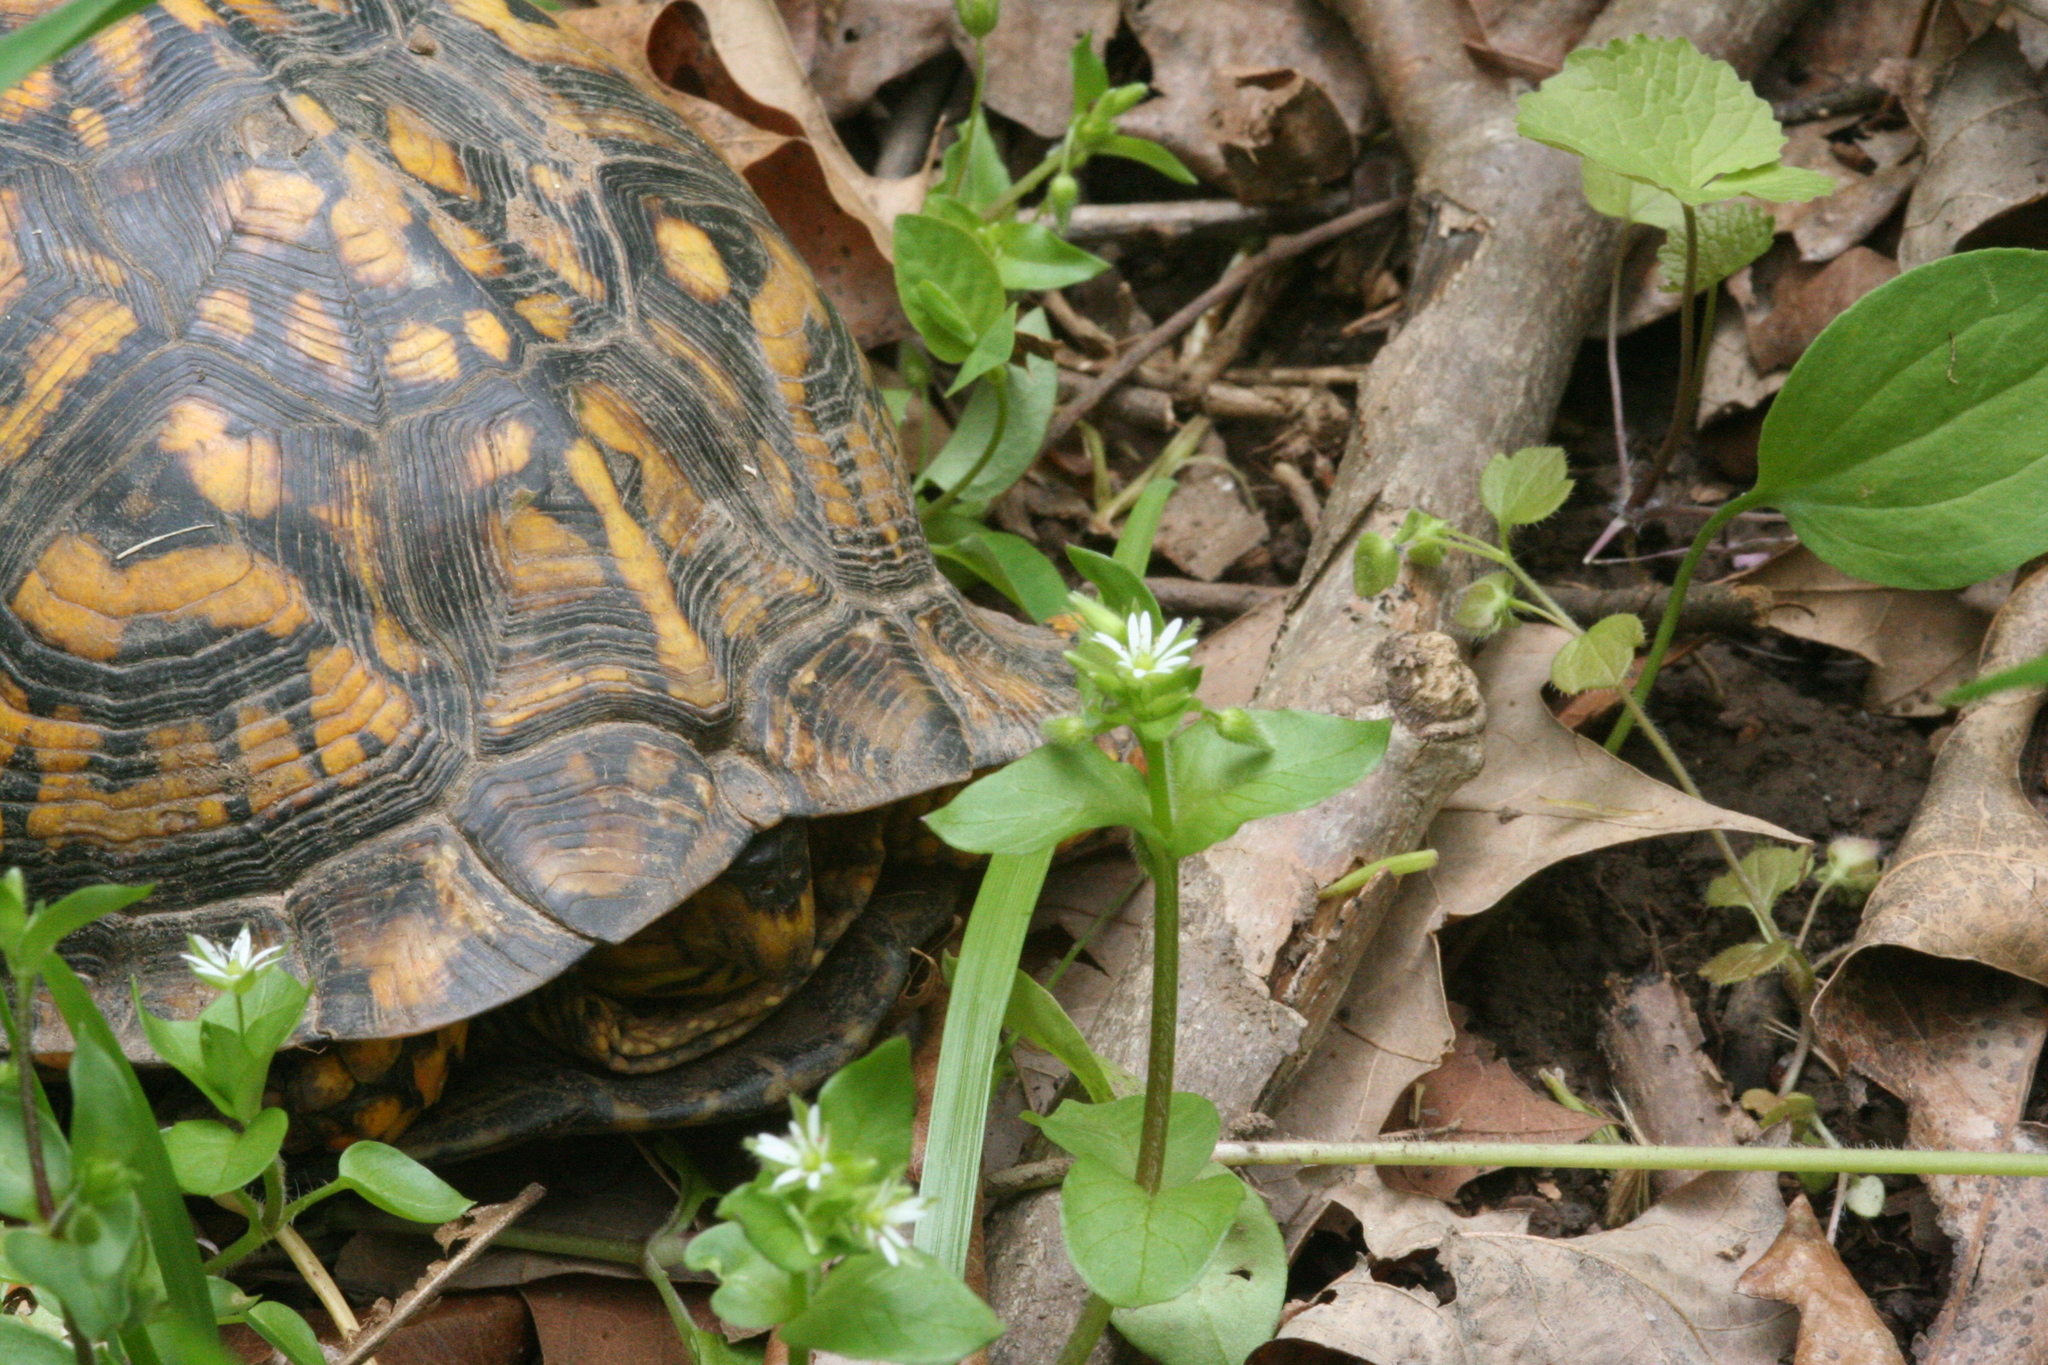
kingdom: Animalia
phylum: Chordata
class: Testudines
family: Emydidae
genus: Terrapene
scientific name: Terrapene carolina
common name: Common box turtle
